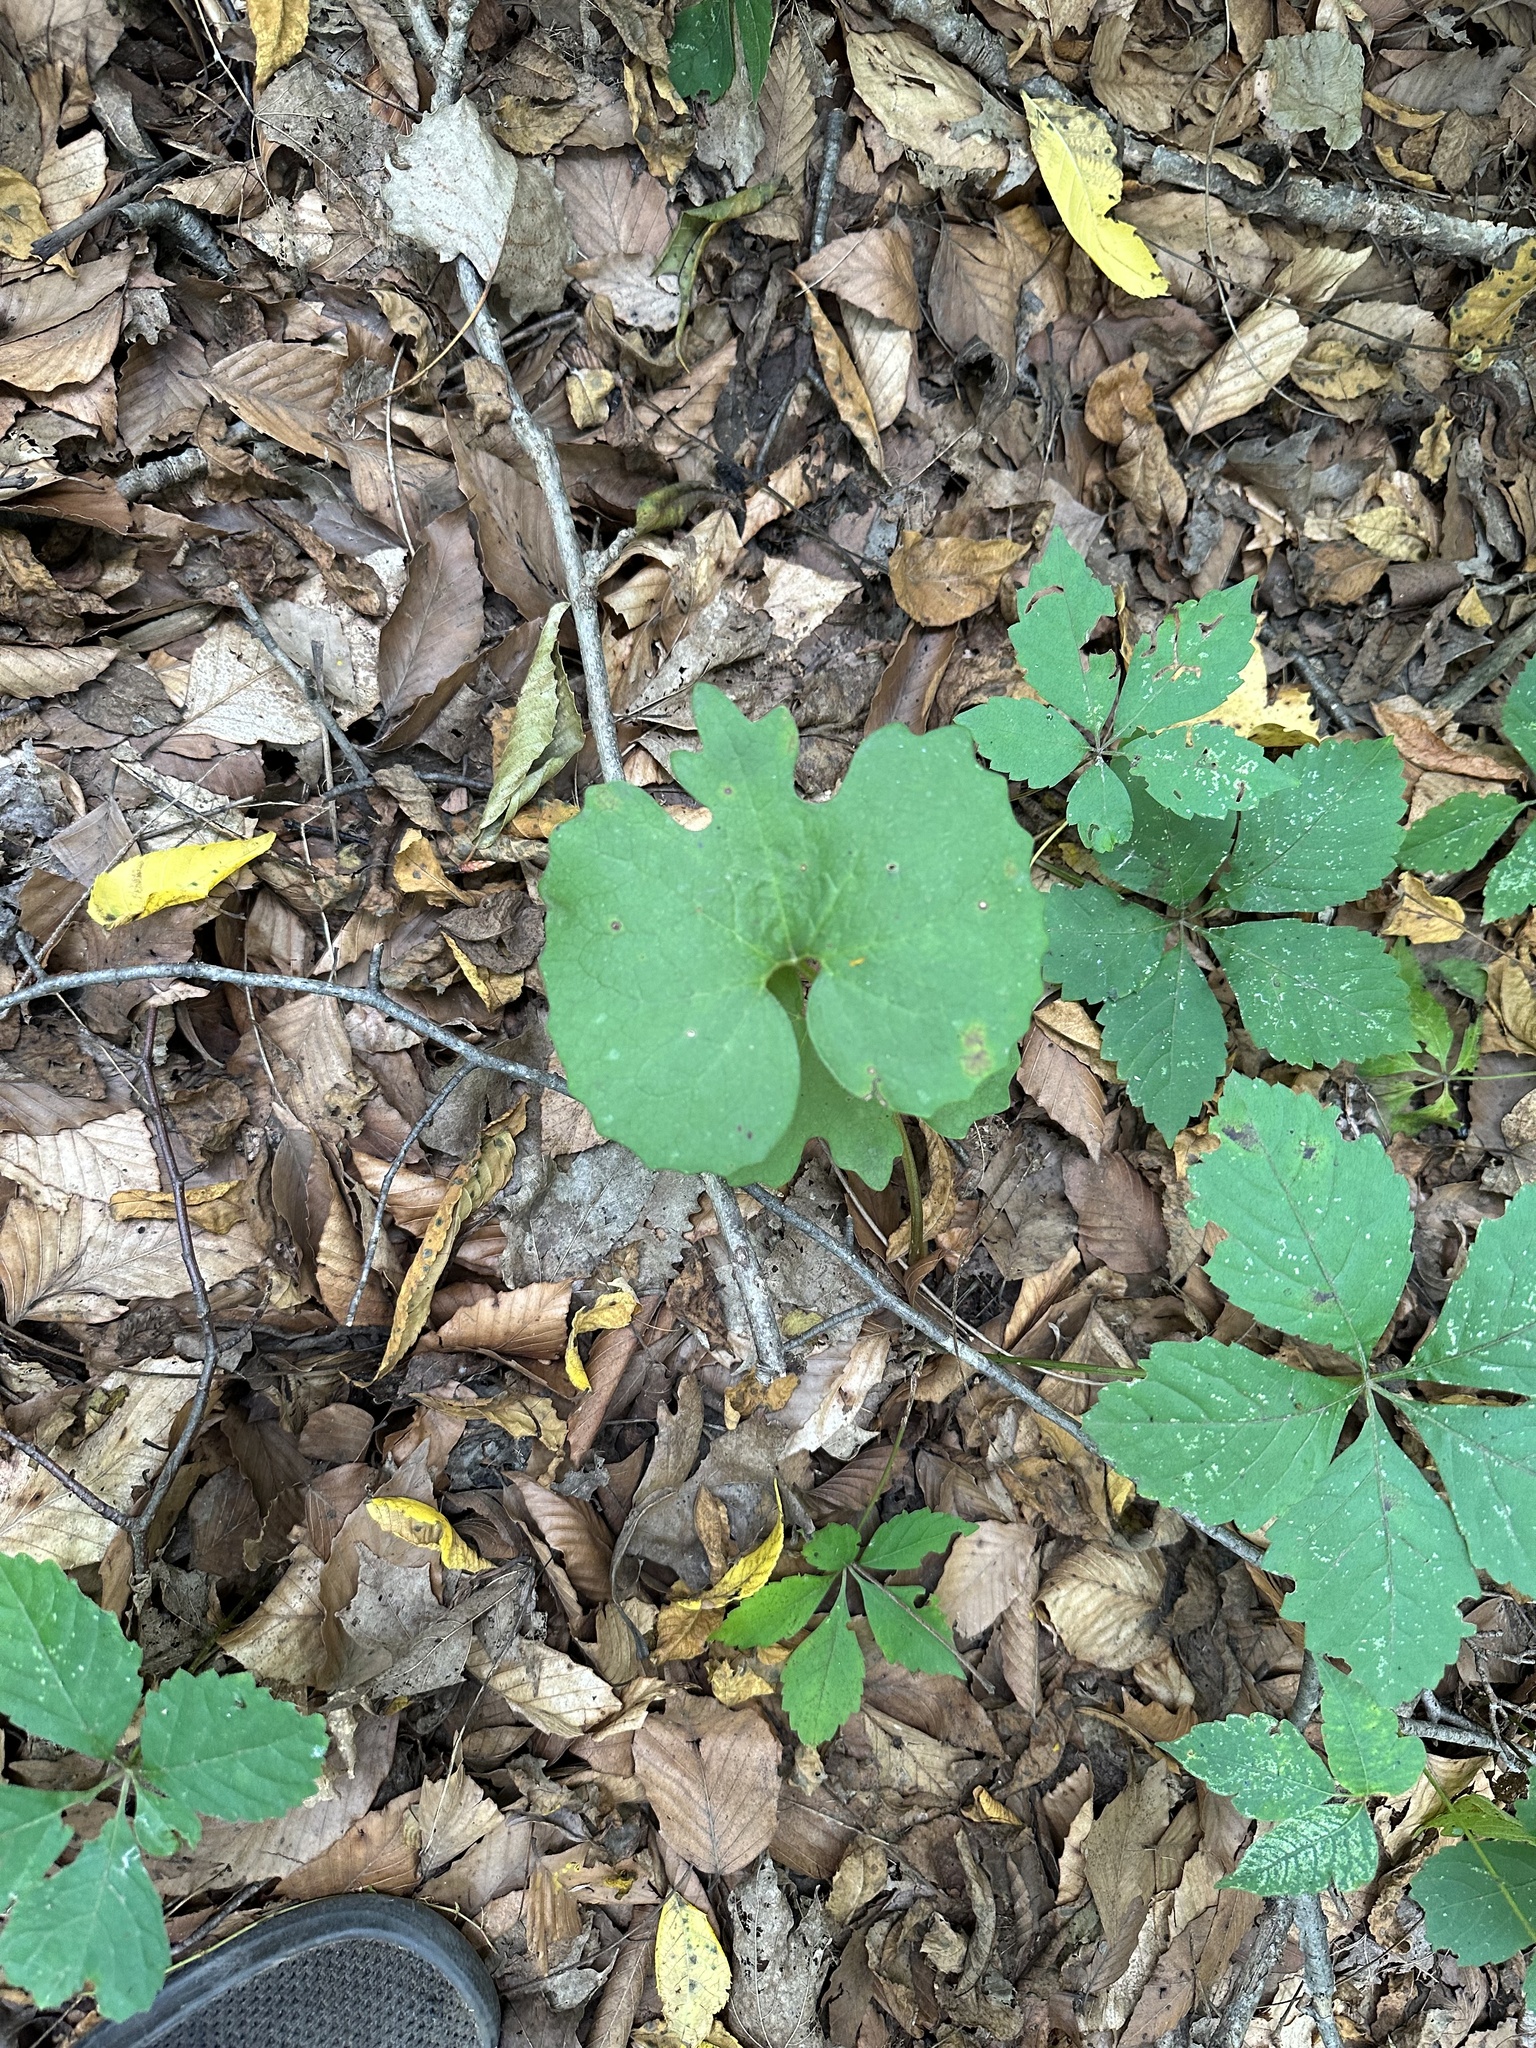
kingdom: Plantae
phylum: Tracheophyta
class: Magnoliopsida
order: Ranunculales
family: Papaveraceae
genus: Sanguinaria
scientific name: Sanguinaria canadensis
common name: Bloodroot
